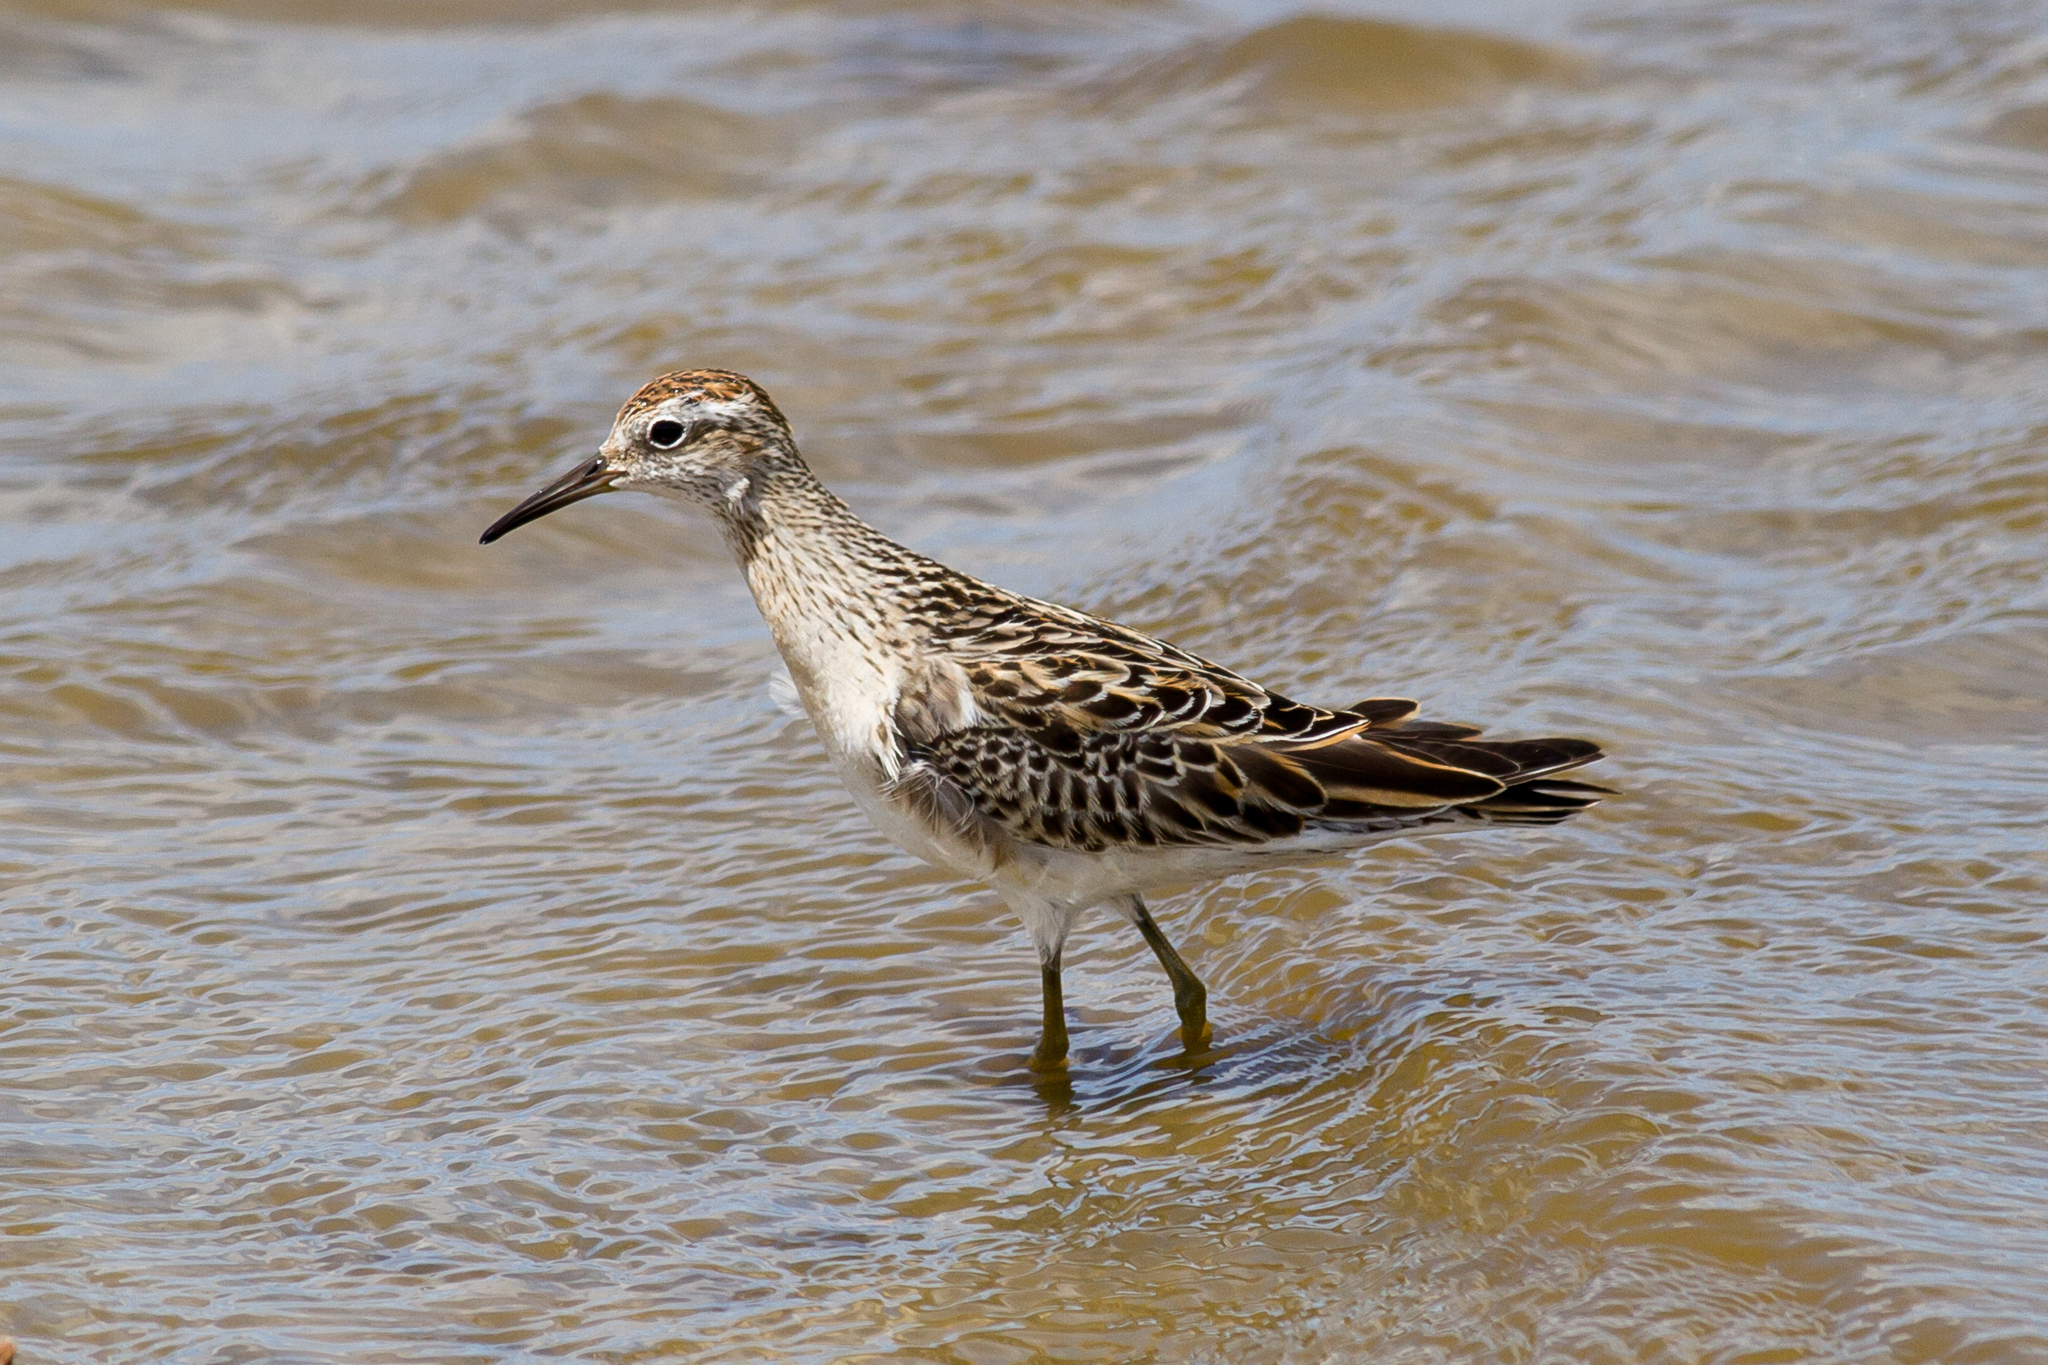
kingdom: Animalia
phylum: Chordata
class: Aves
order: Charadriiformes
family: Scolopacidae
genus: Calidris
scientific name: Calidris acuminata
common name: Sharp-tailed sandpiper
